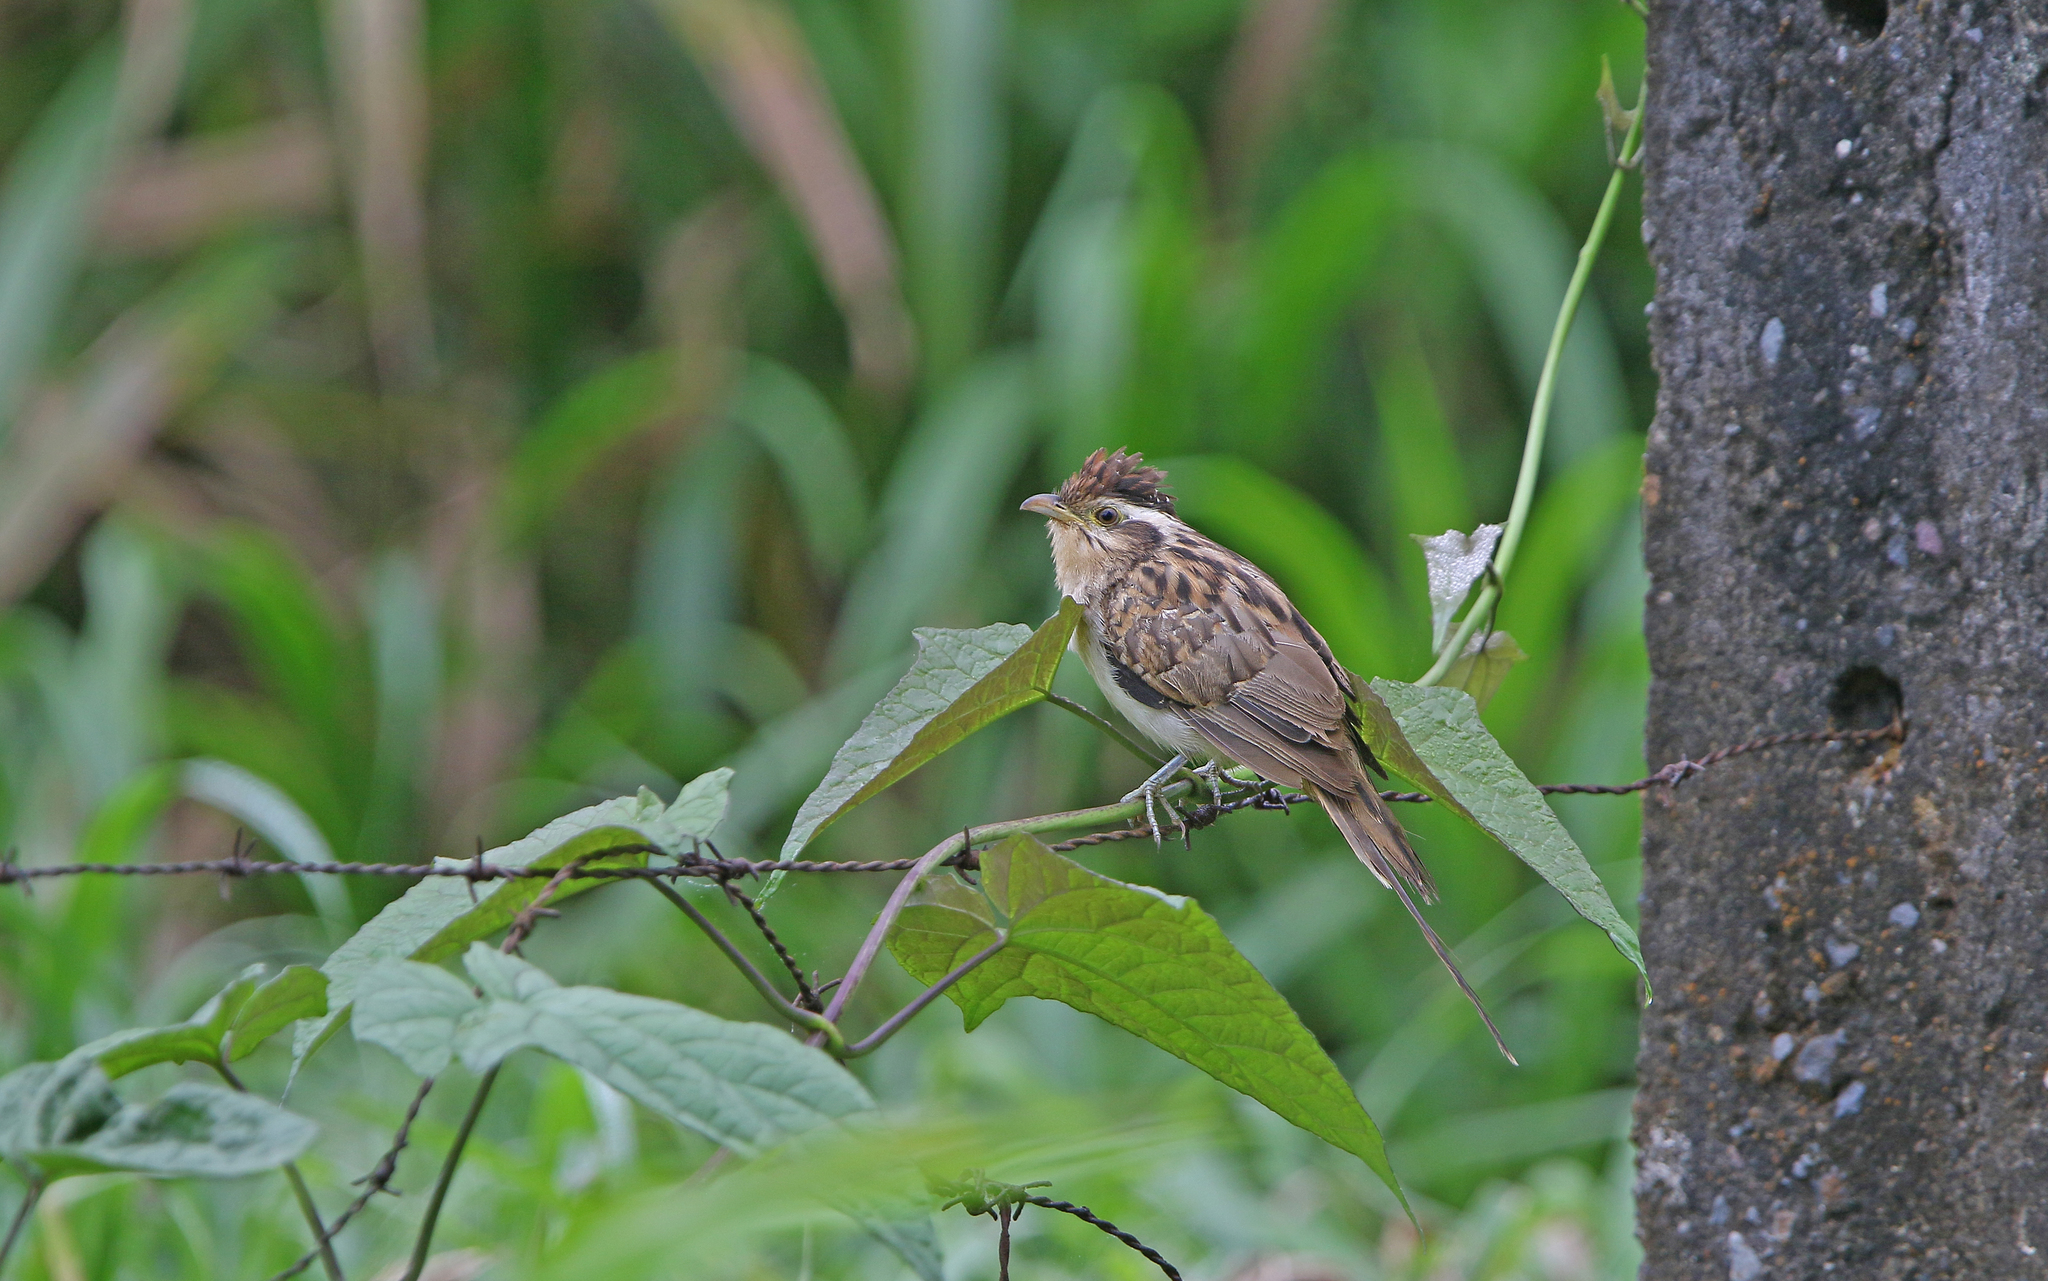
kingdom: Animalia
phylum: Chordata
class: Aves
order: Cuculiformes
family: Cuculidae
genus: Tapera
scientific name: Tapera naevia
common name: Striped cuckoo
